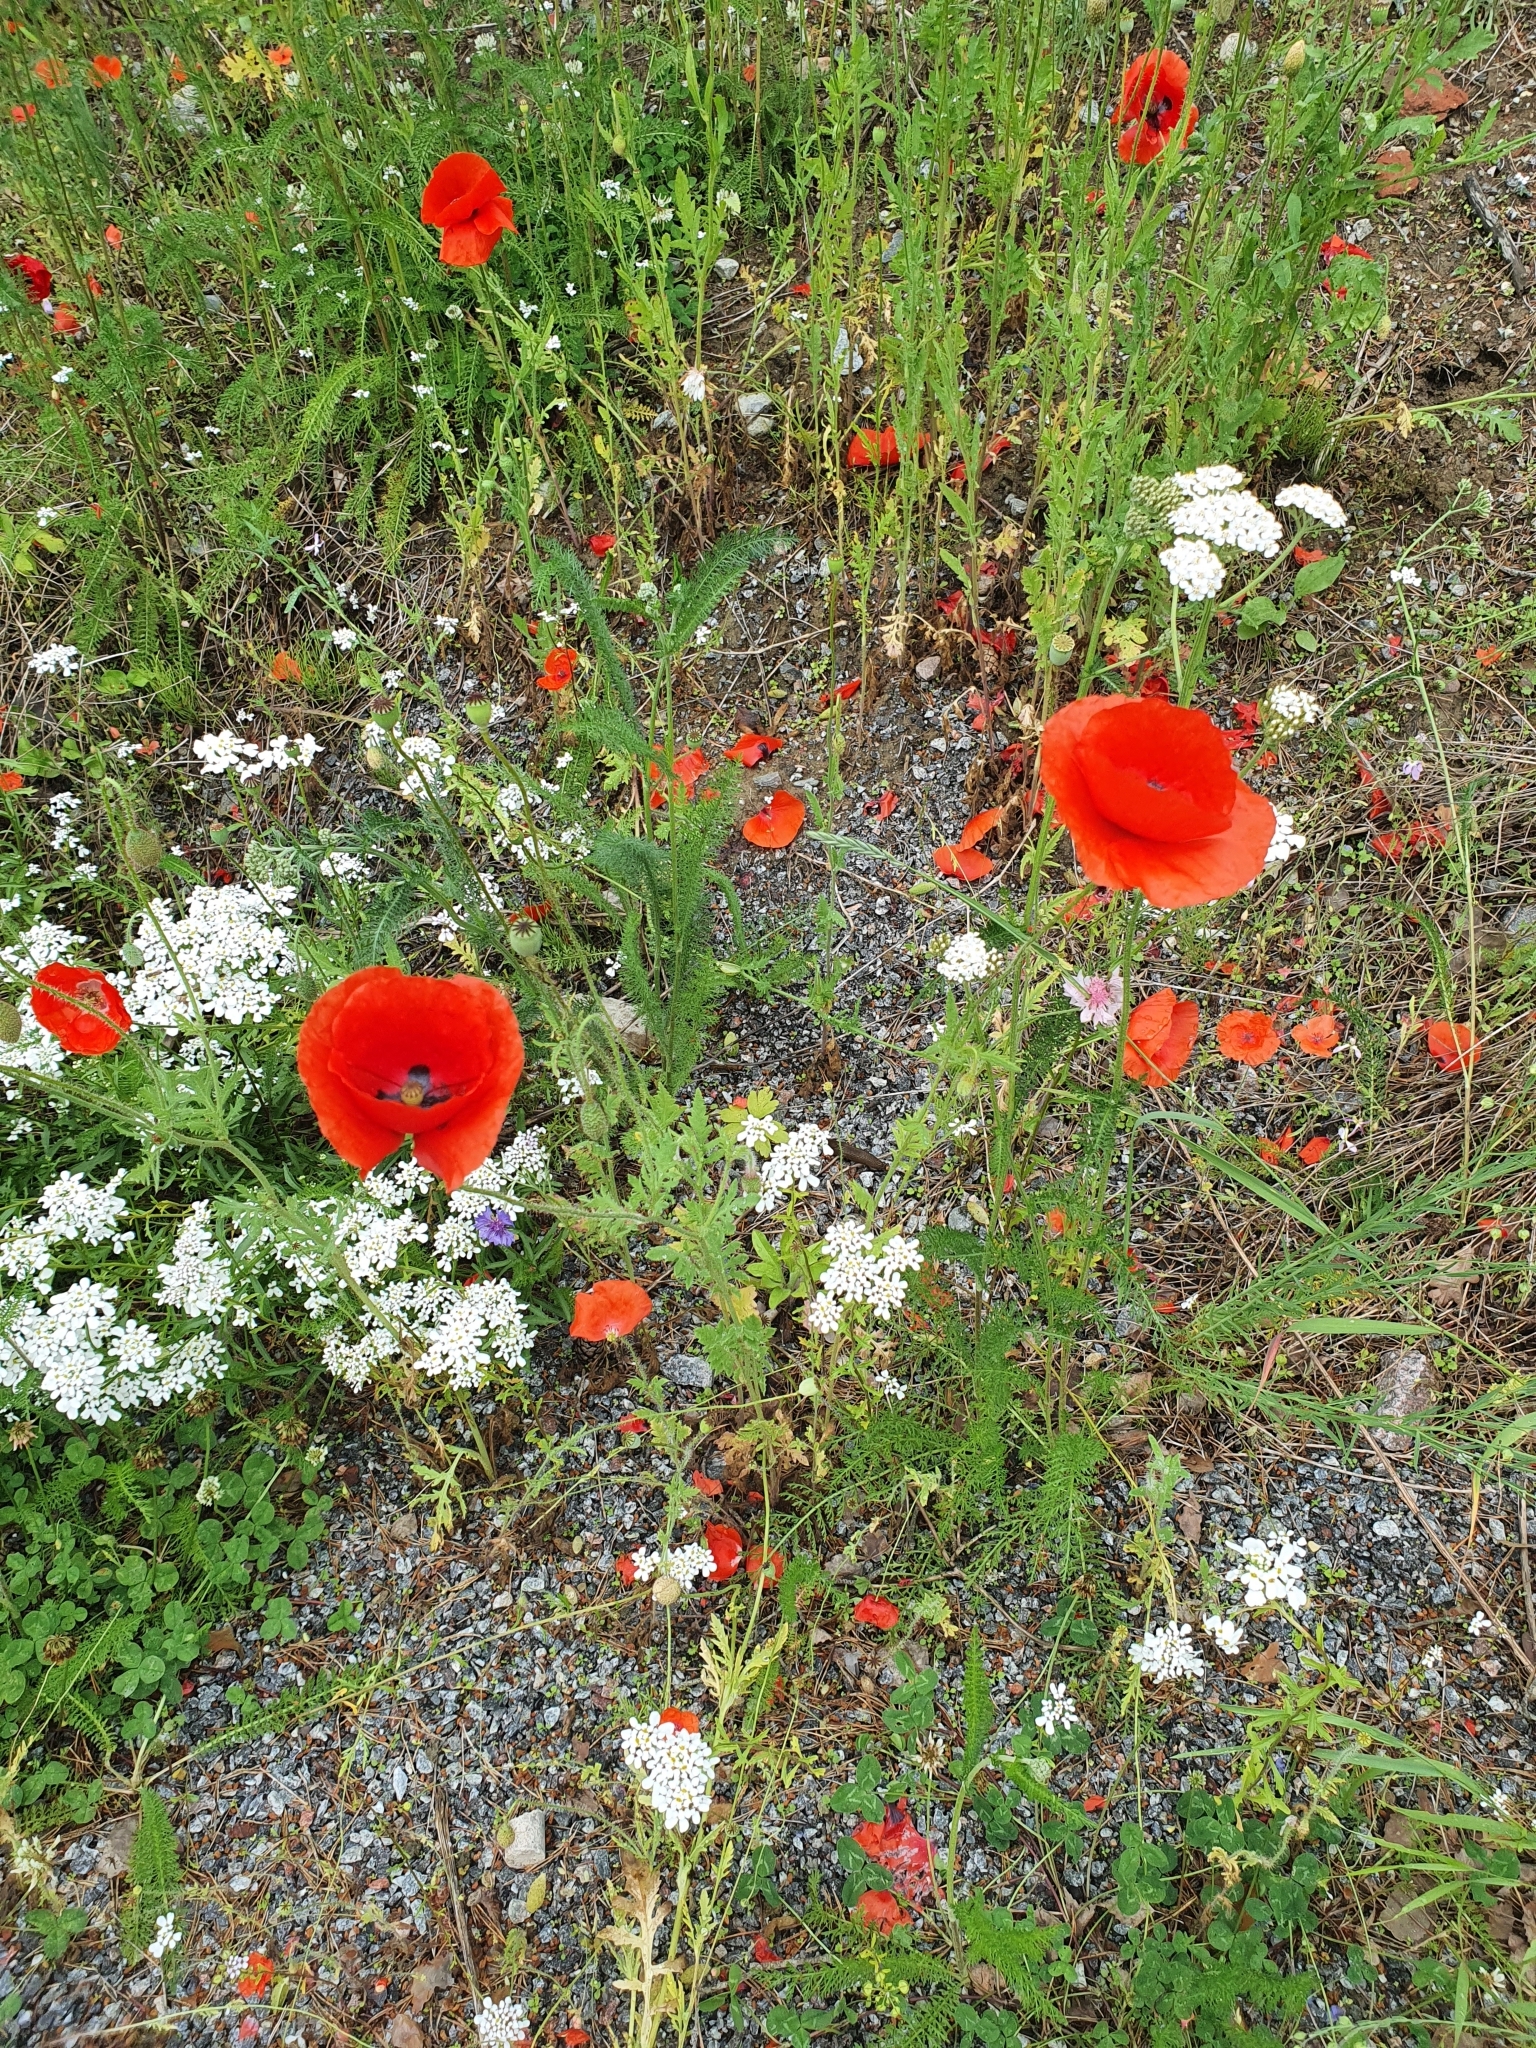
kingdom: Plantae
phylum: Tracheophyta
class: Magnoliopsida
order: Ranunculales
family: Papaveraceae
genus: Papaver
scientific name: Papaver rhoeas
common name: Corn poppy
